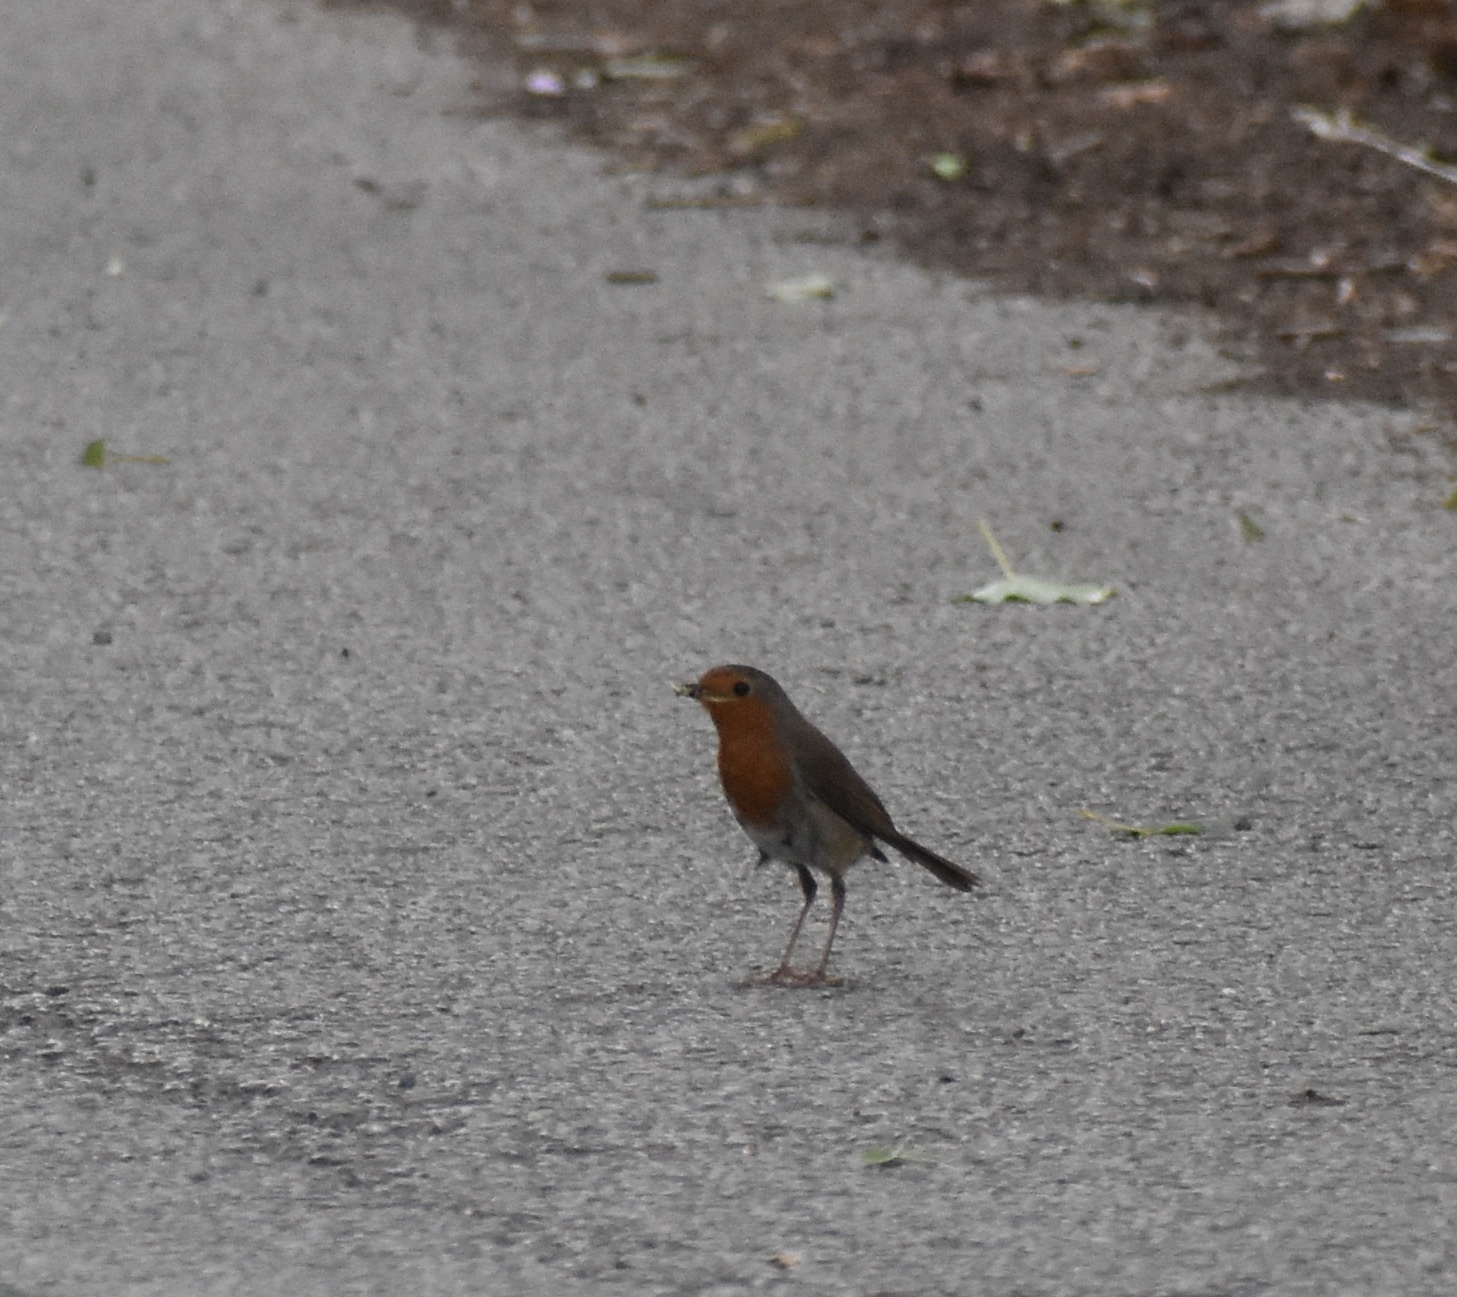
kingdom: Animalia
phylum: Chordata
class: Aves
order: Passeriformes
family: Muscicapidae
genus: Erithacus
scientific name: Erithacus rubecula
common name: European robin
